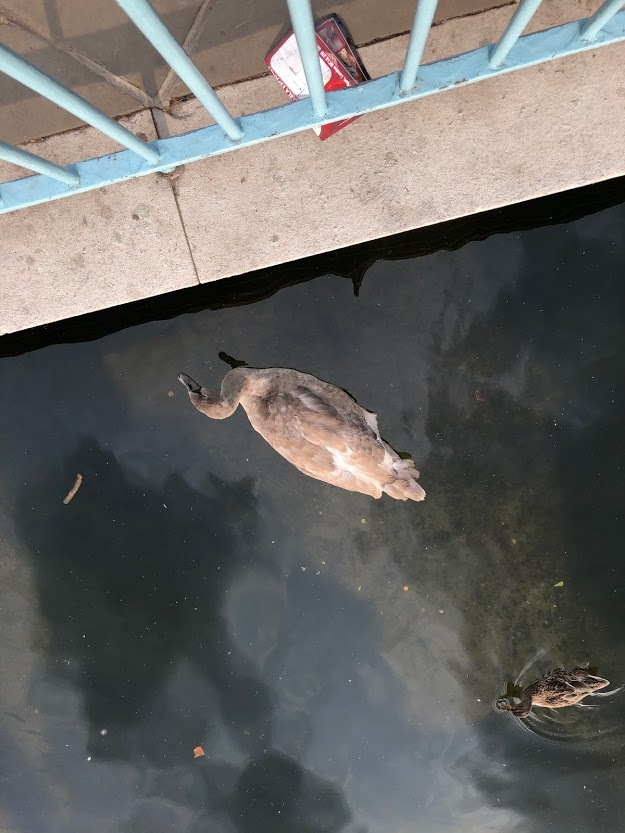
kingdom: Animalia
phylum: Chordata
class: Aves
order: Anseriformes
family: Anatidae
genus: Cygnus
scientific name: Cygnus olor
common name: Mute swan
